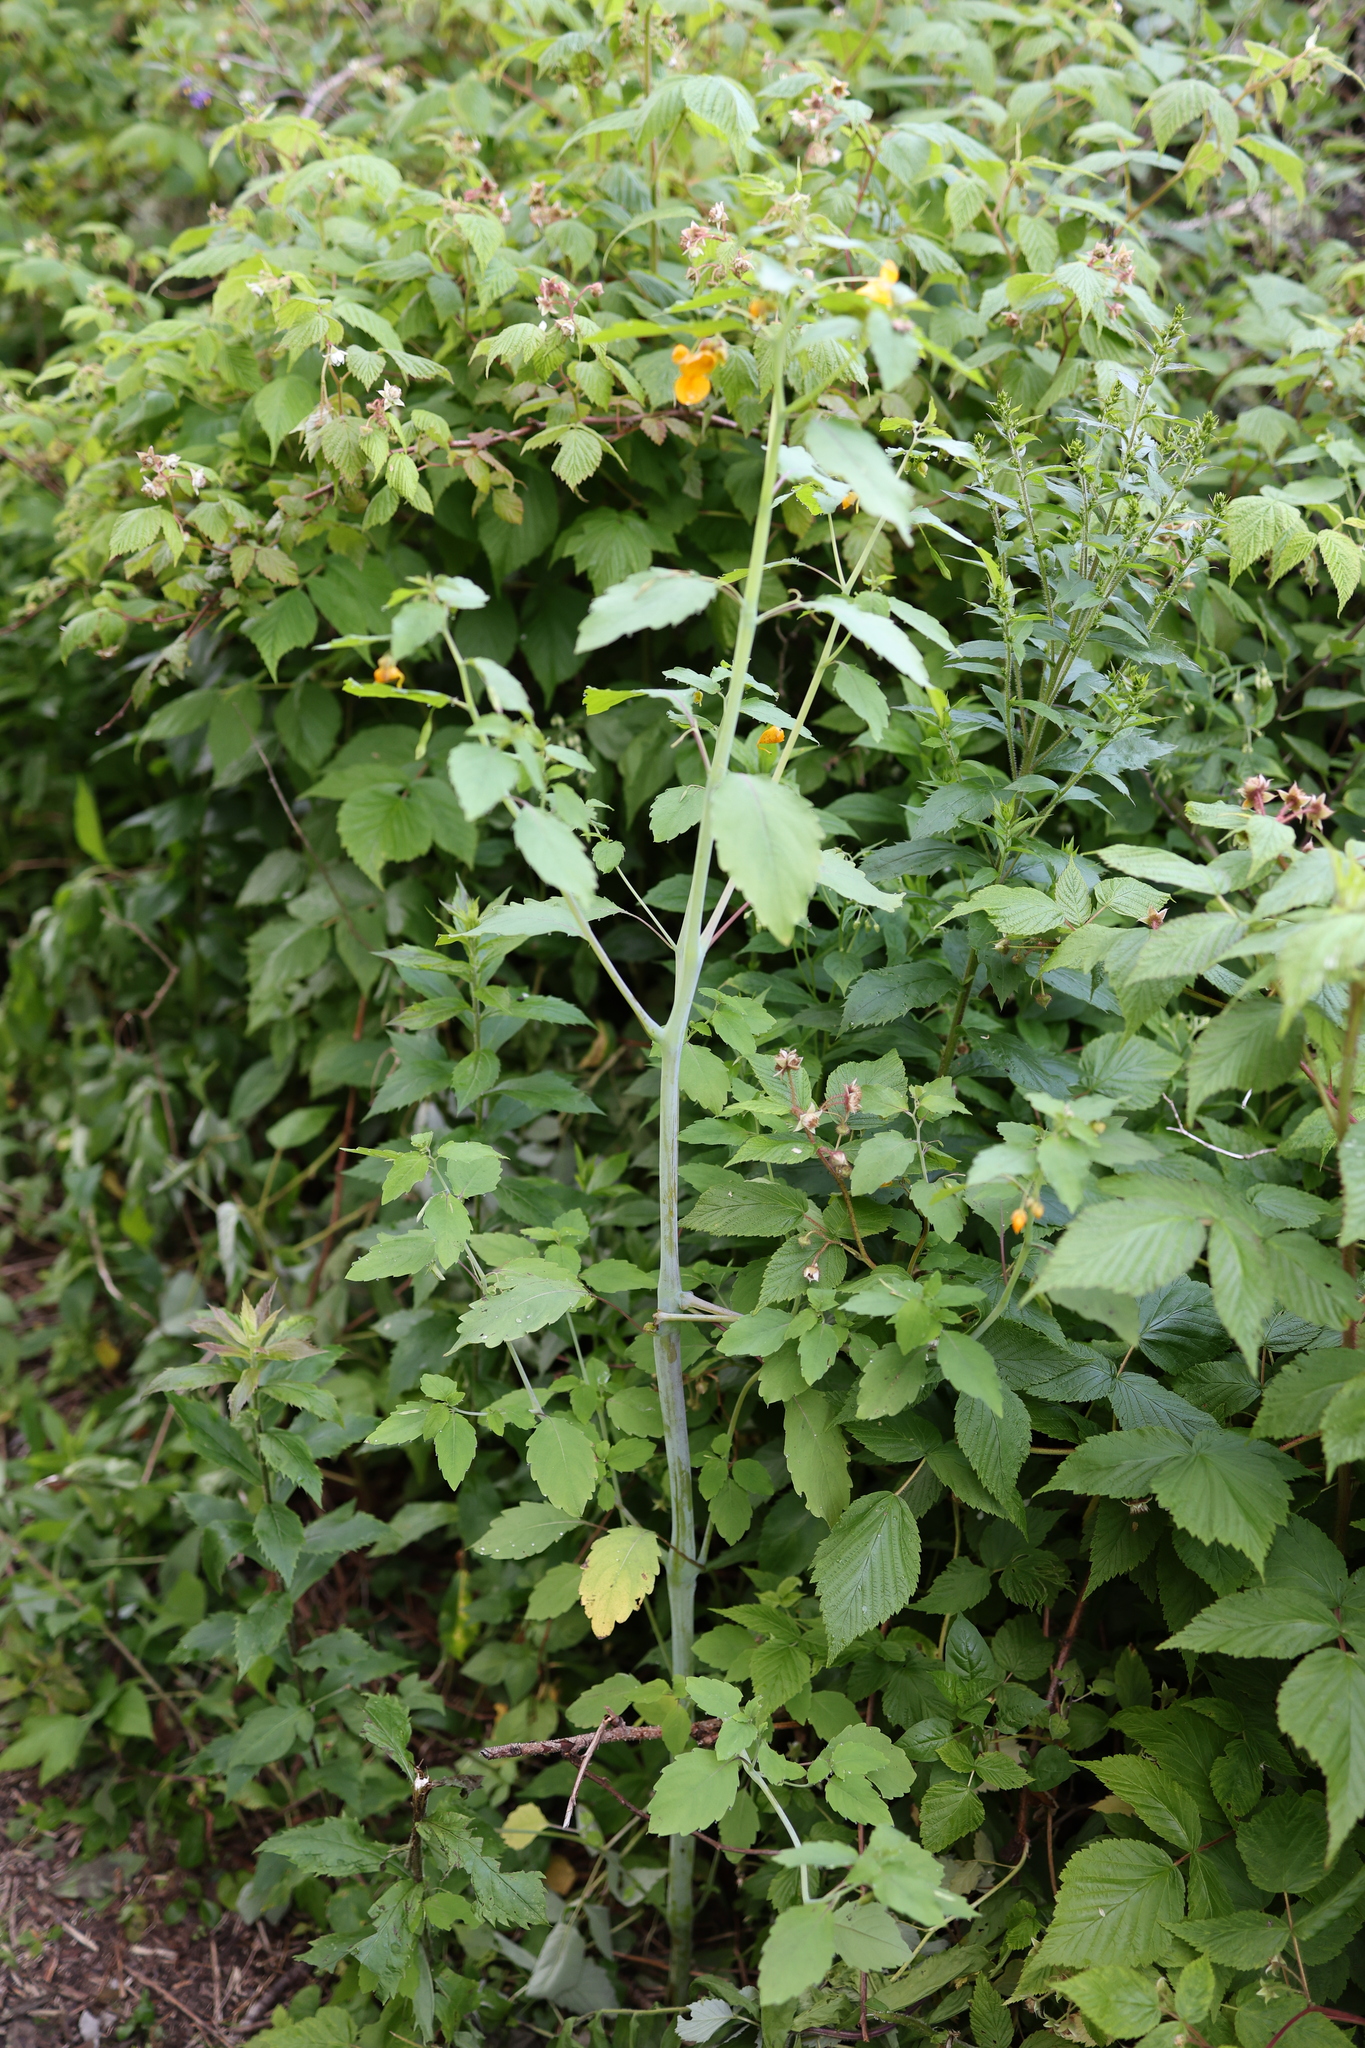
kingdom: Plantae
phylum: Tracheophyta
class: Magnoliopsida
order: Ericales
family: Balsaminaceae
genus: Impatiens
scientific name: Impatiens capensis
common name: Orange balsam
